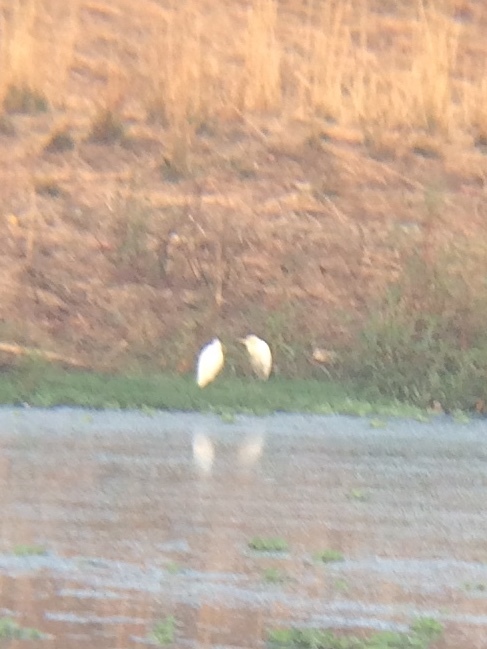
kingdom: Animalia
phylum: Chordata
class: Aves
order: Pelecaniformes
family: Ardeidae
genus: Bubulcus
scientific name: Bubulcus coromandus
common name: Eastern cattle egret
